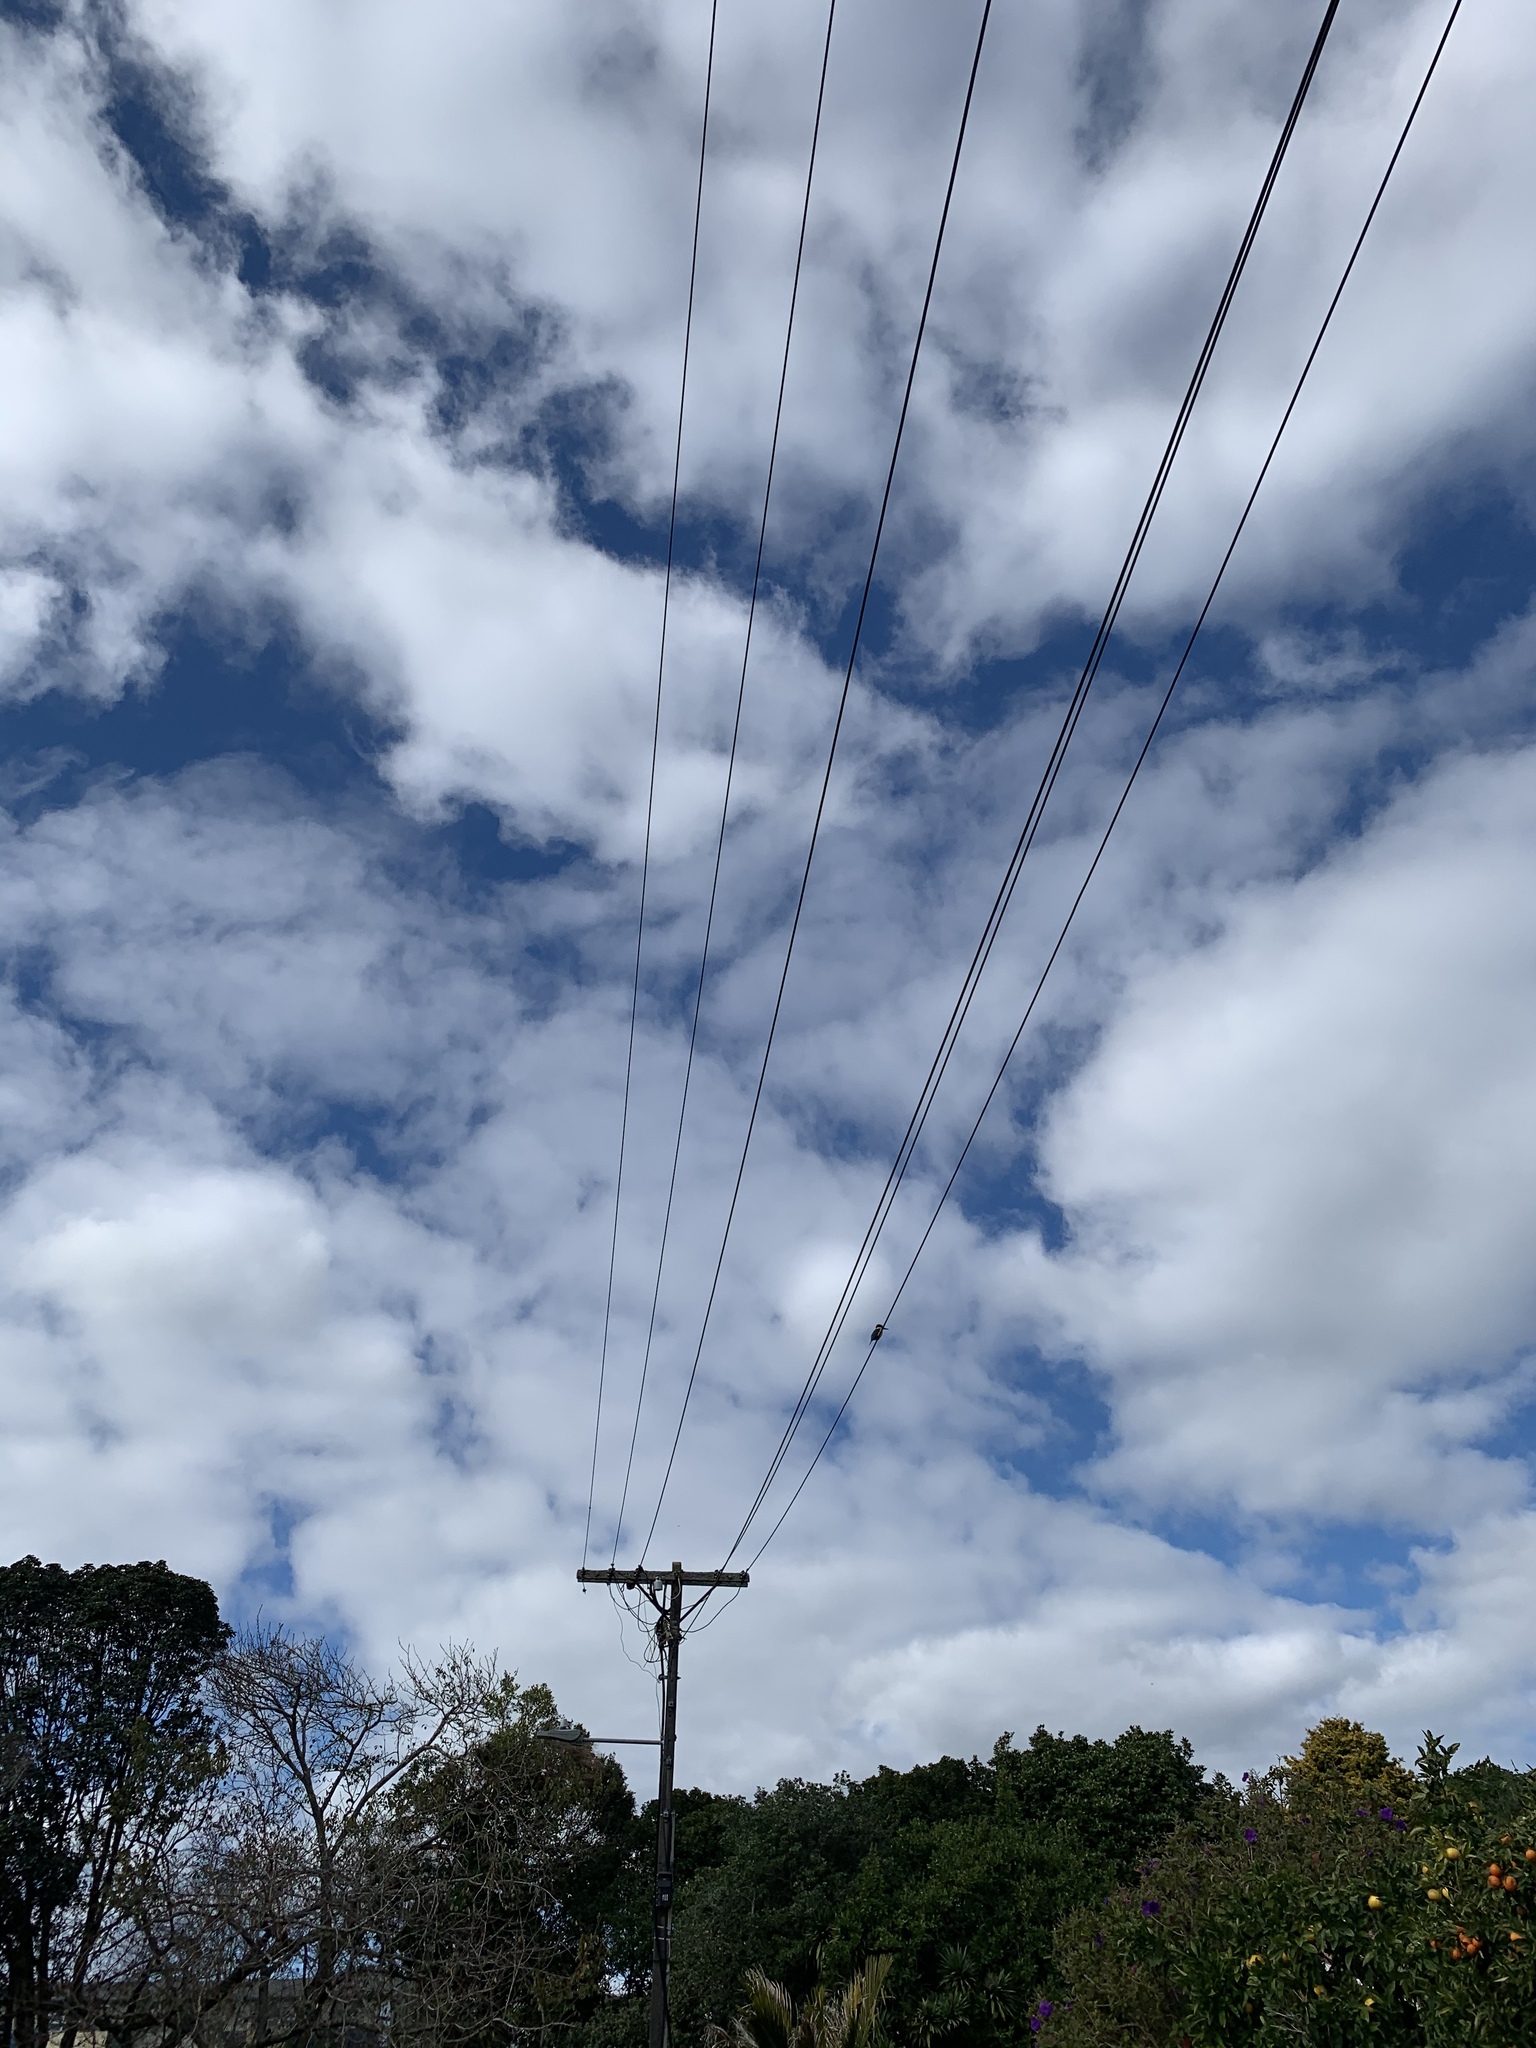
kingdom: Animalia
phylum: Chordata
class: Aves
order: Coraciiformes
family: Alcedinidae
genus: Todiramphus
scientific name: Todiramphus sanctus
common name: Sacred kingfisher
